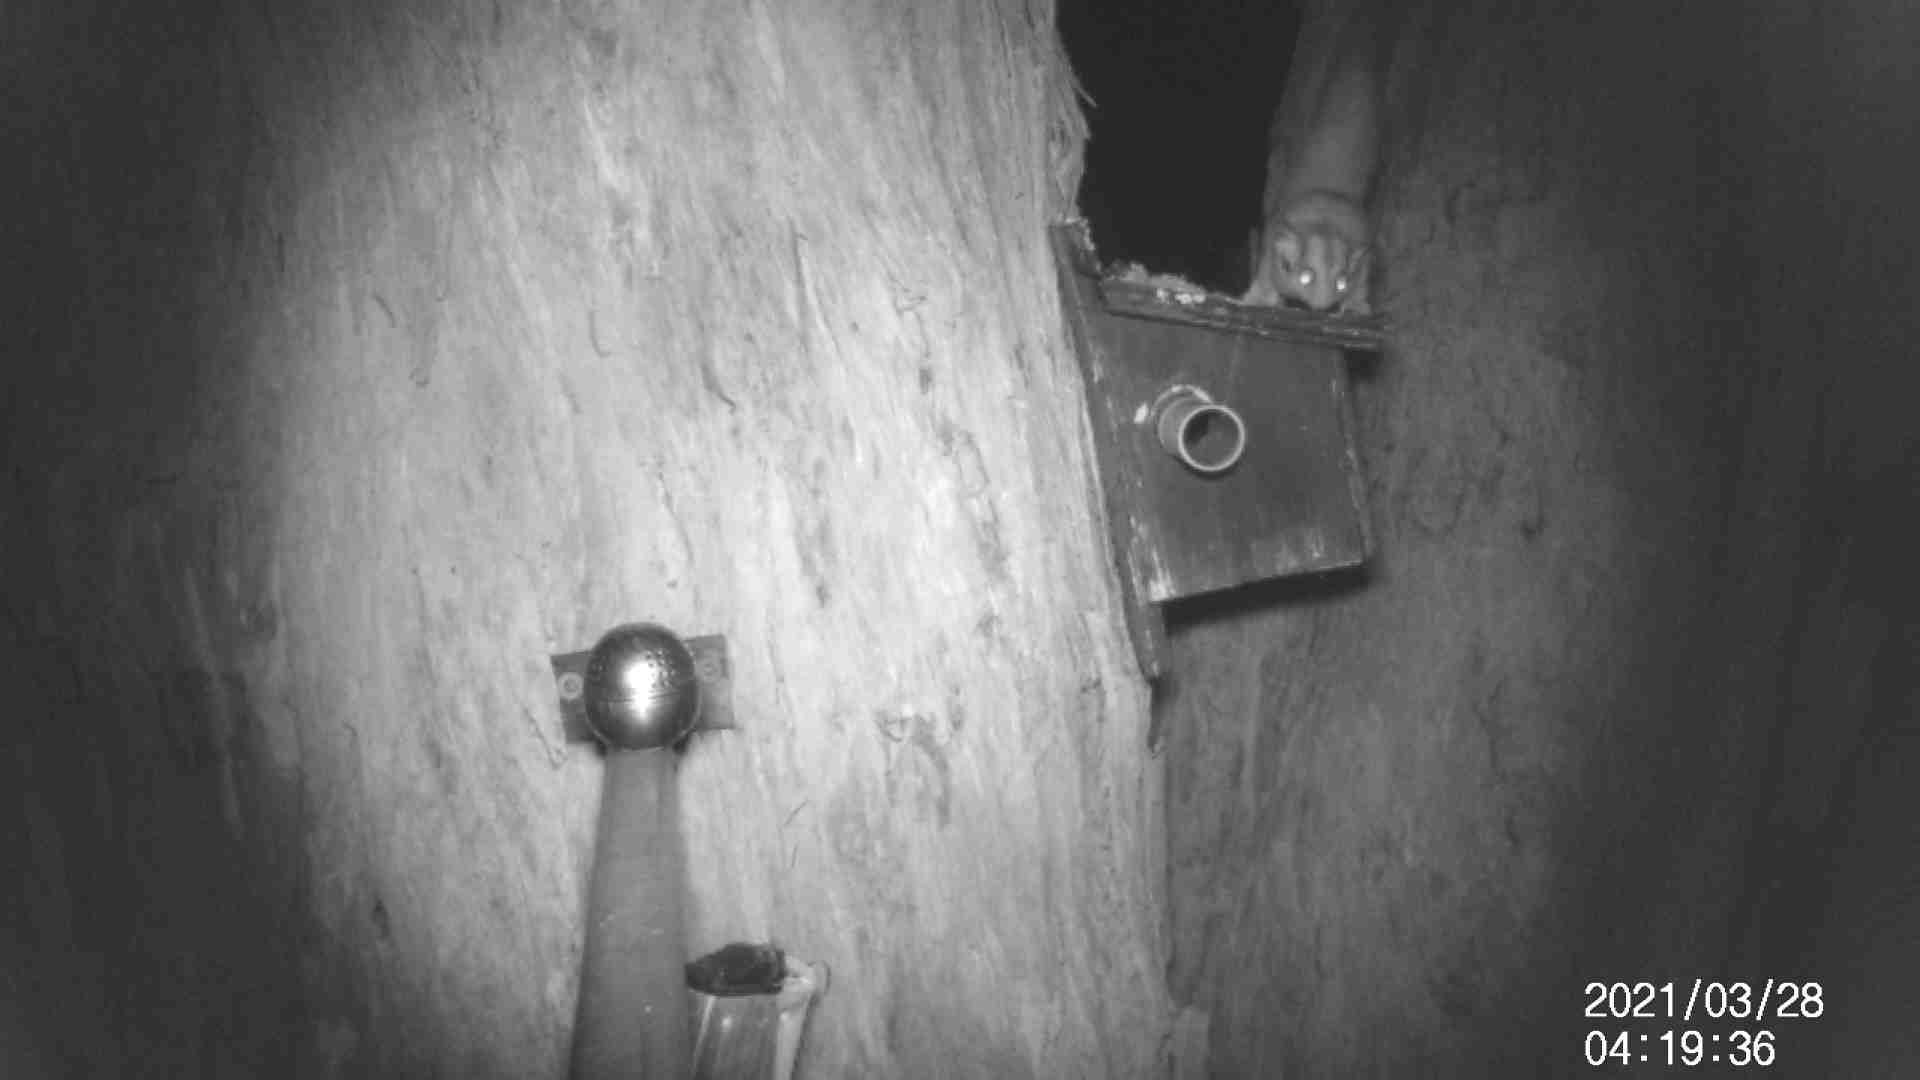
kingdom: Animalia
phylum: Chordata
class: Mammalia
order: Diprotodontia
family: Petauridae
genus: Petaurus
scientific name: Petaurus breviceps
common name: Sugar glider
